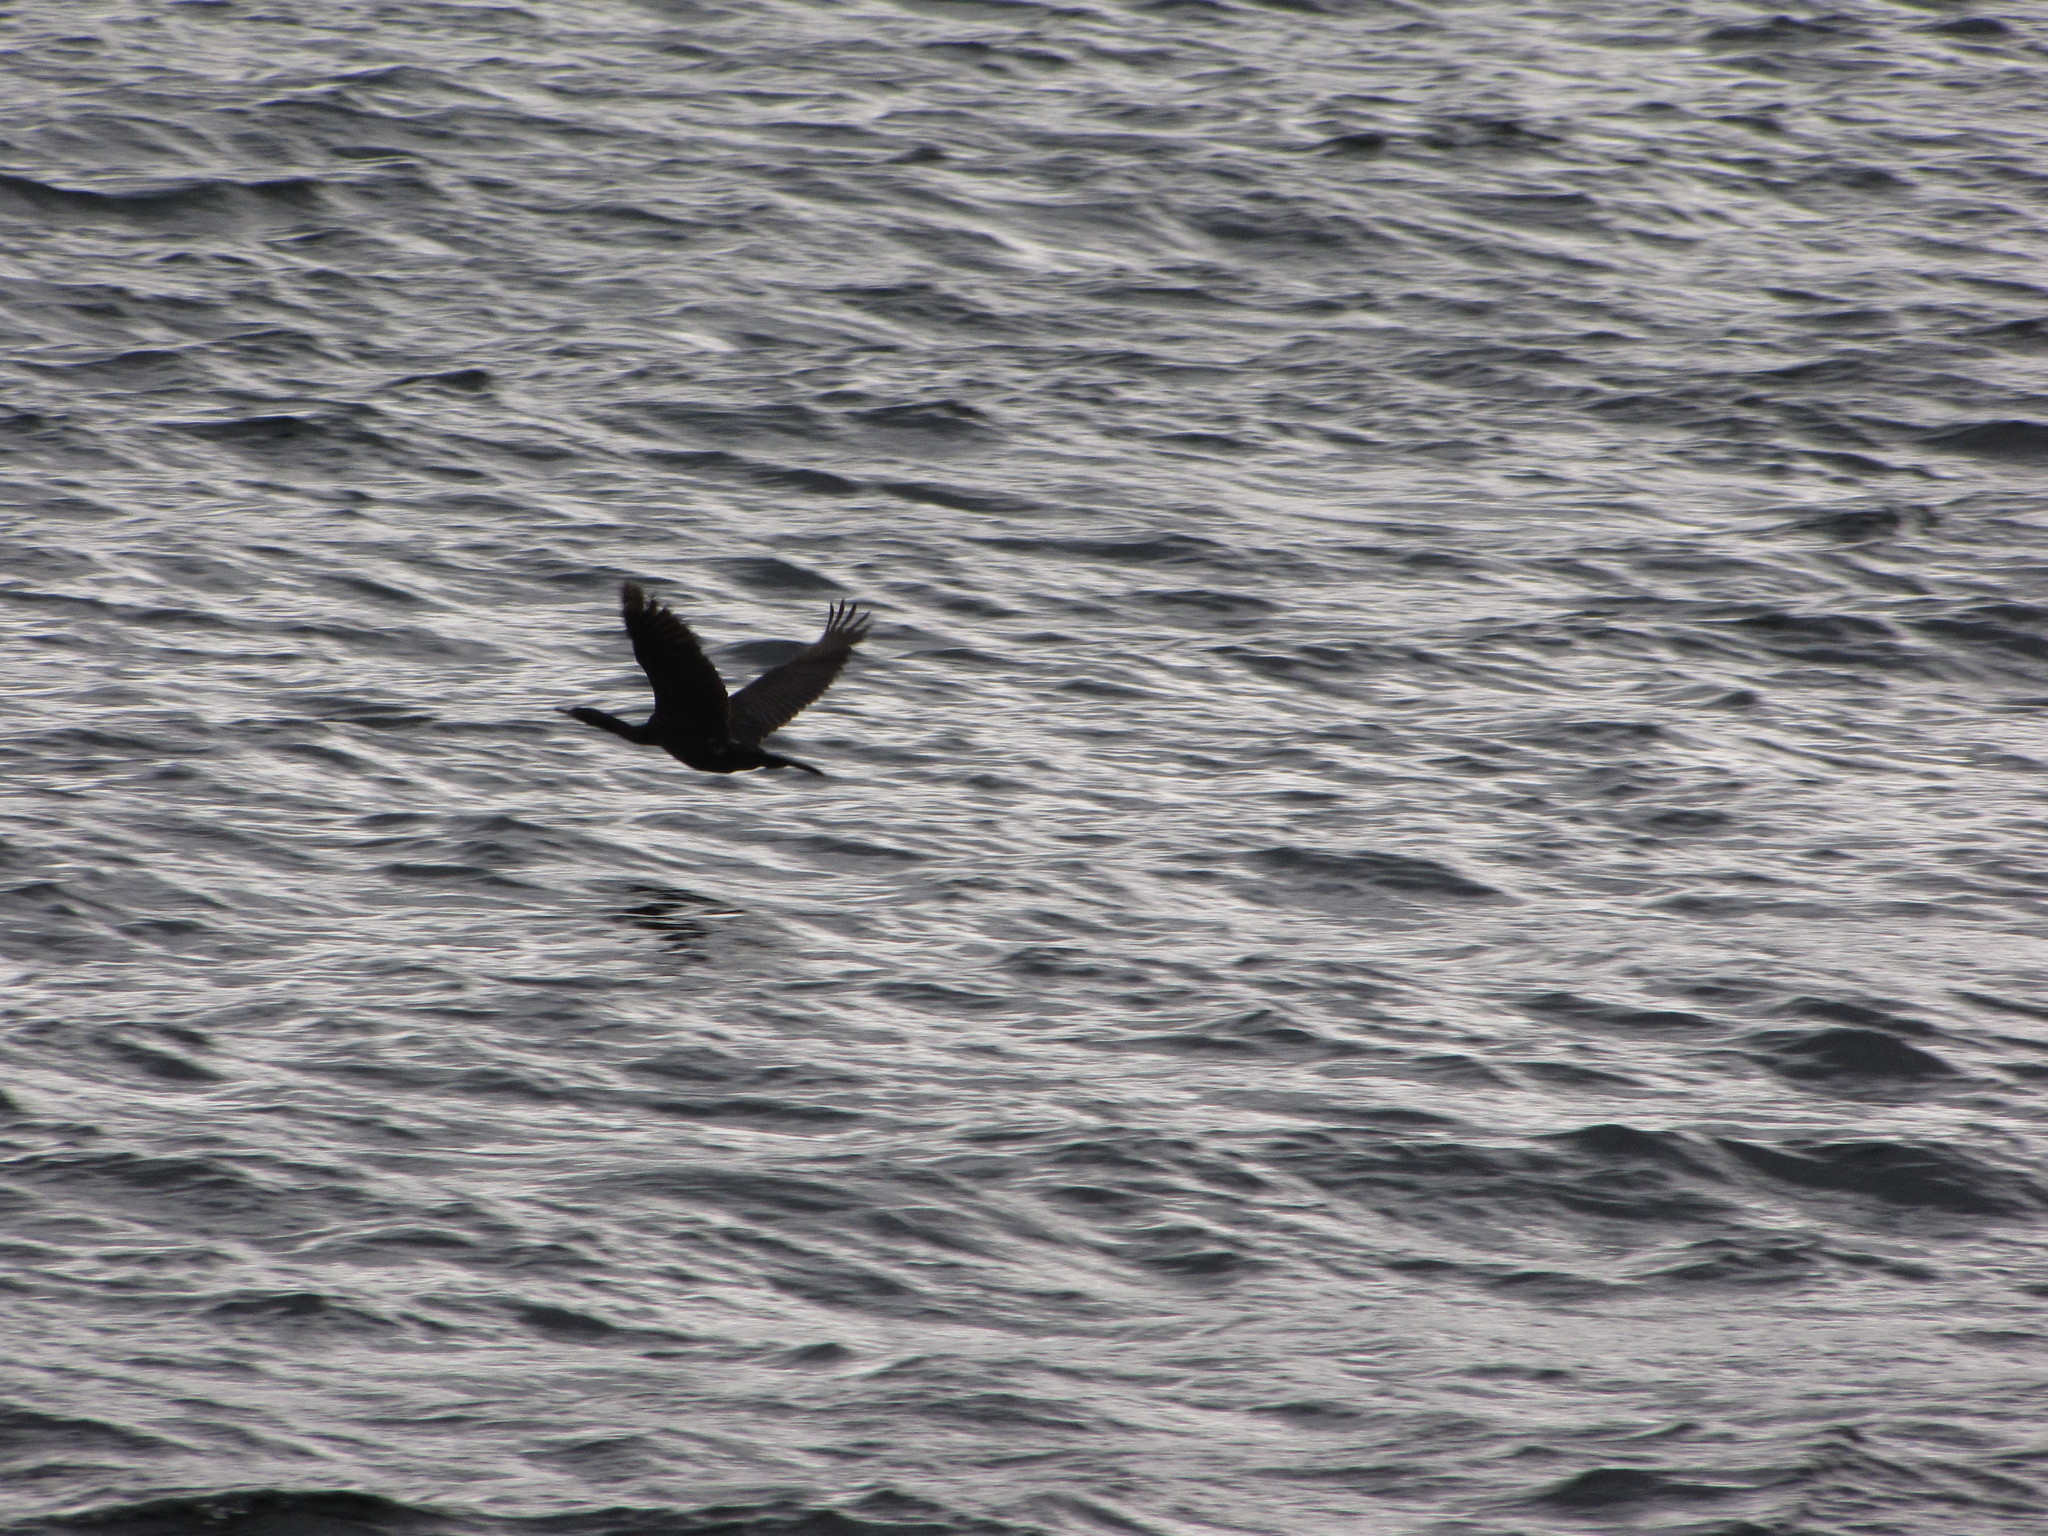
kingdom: Animalia
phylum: Chordata
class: Aves
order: Suliformes
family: Phalacrocoracidae
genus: Phalacrocorax
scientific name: Phalacrocorax pelagicus
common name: Pelagic cormorant
